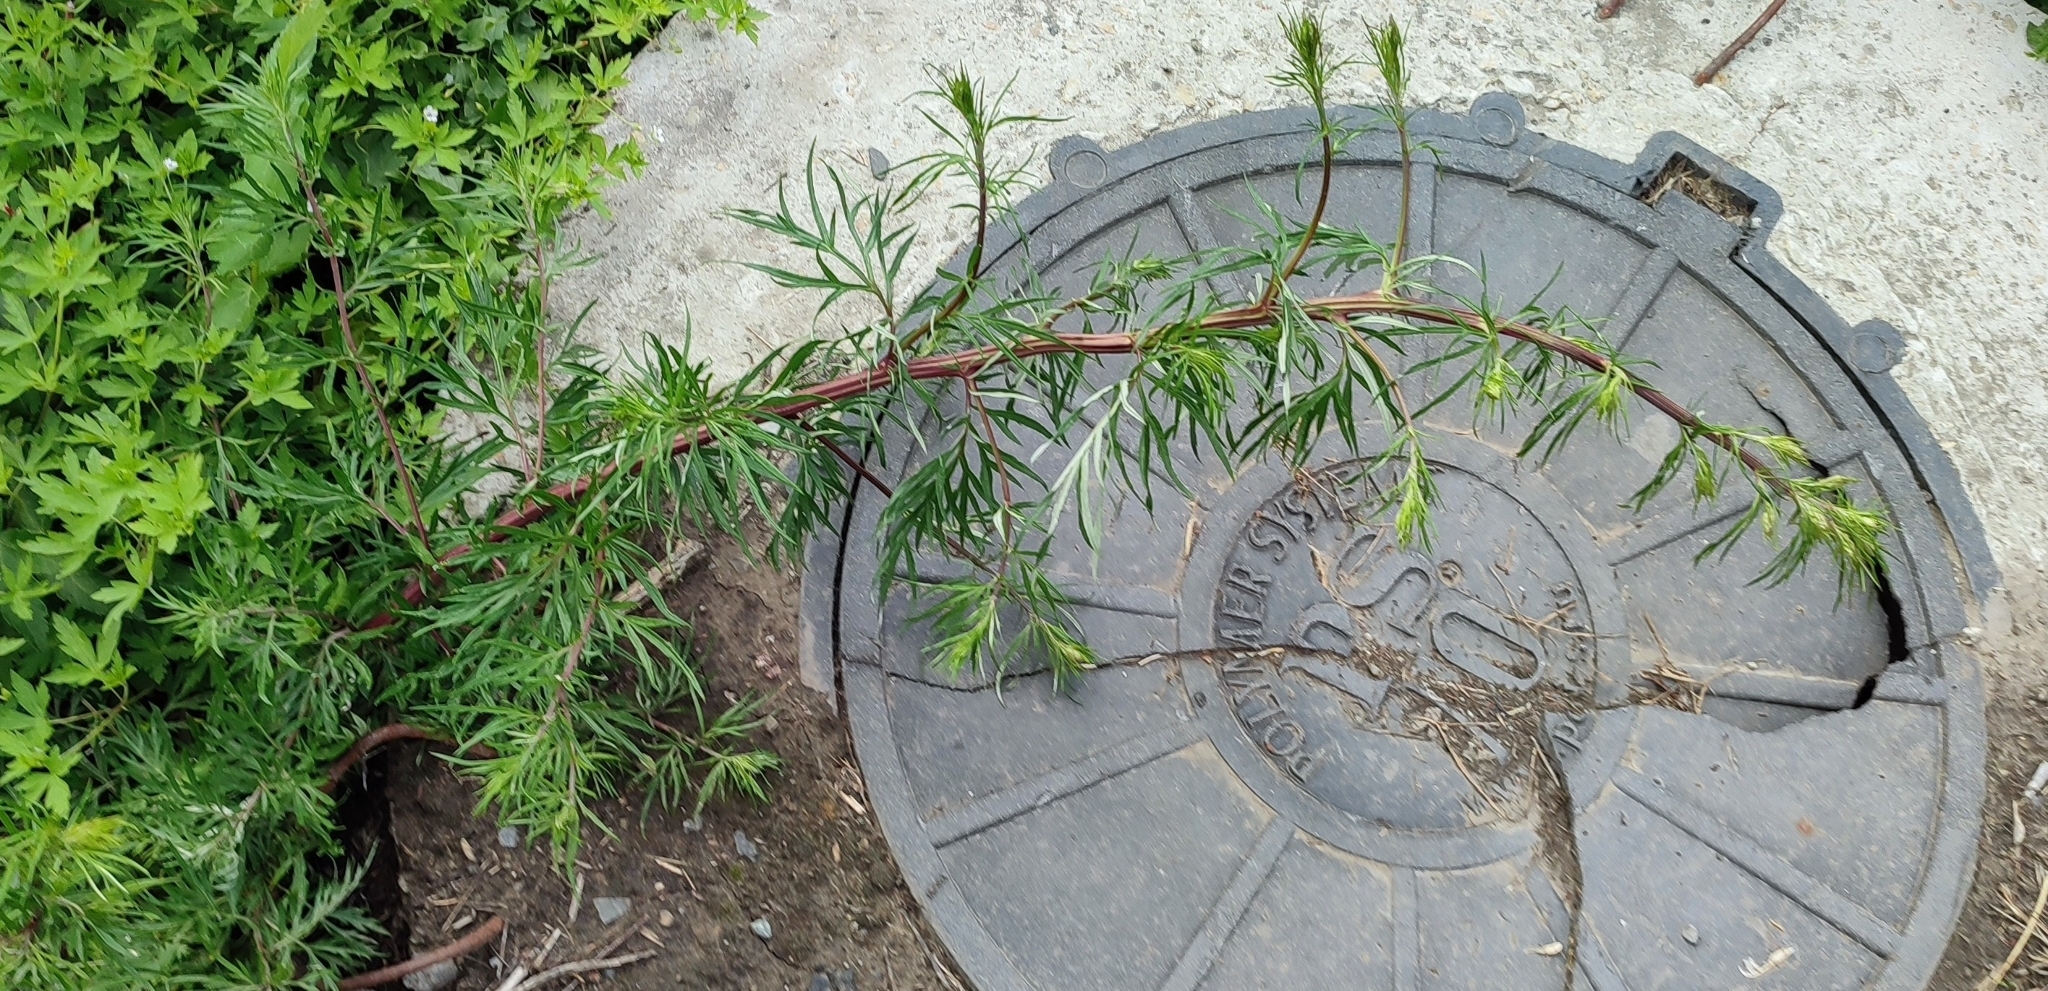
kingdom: Plantae
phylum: Tracheophyta
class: Magnoliopsida
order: Asterales
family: Asteraceae
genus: Artemisia
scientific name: Artemisia vulgaris
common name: Mugwort
